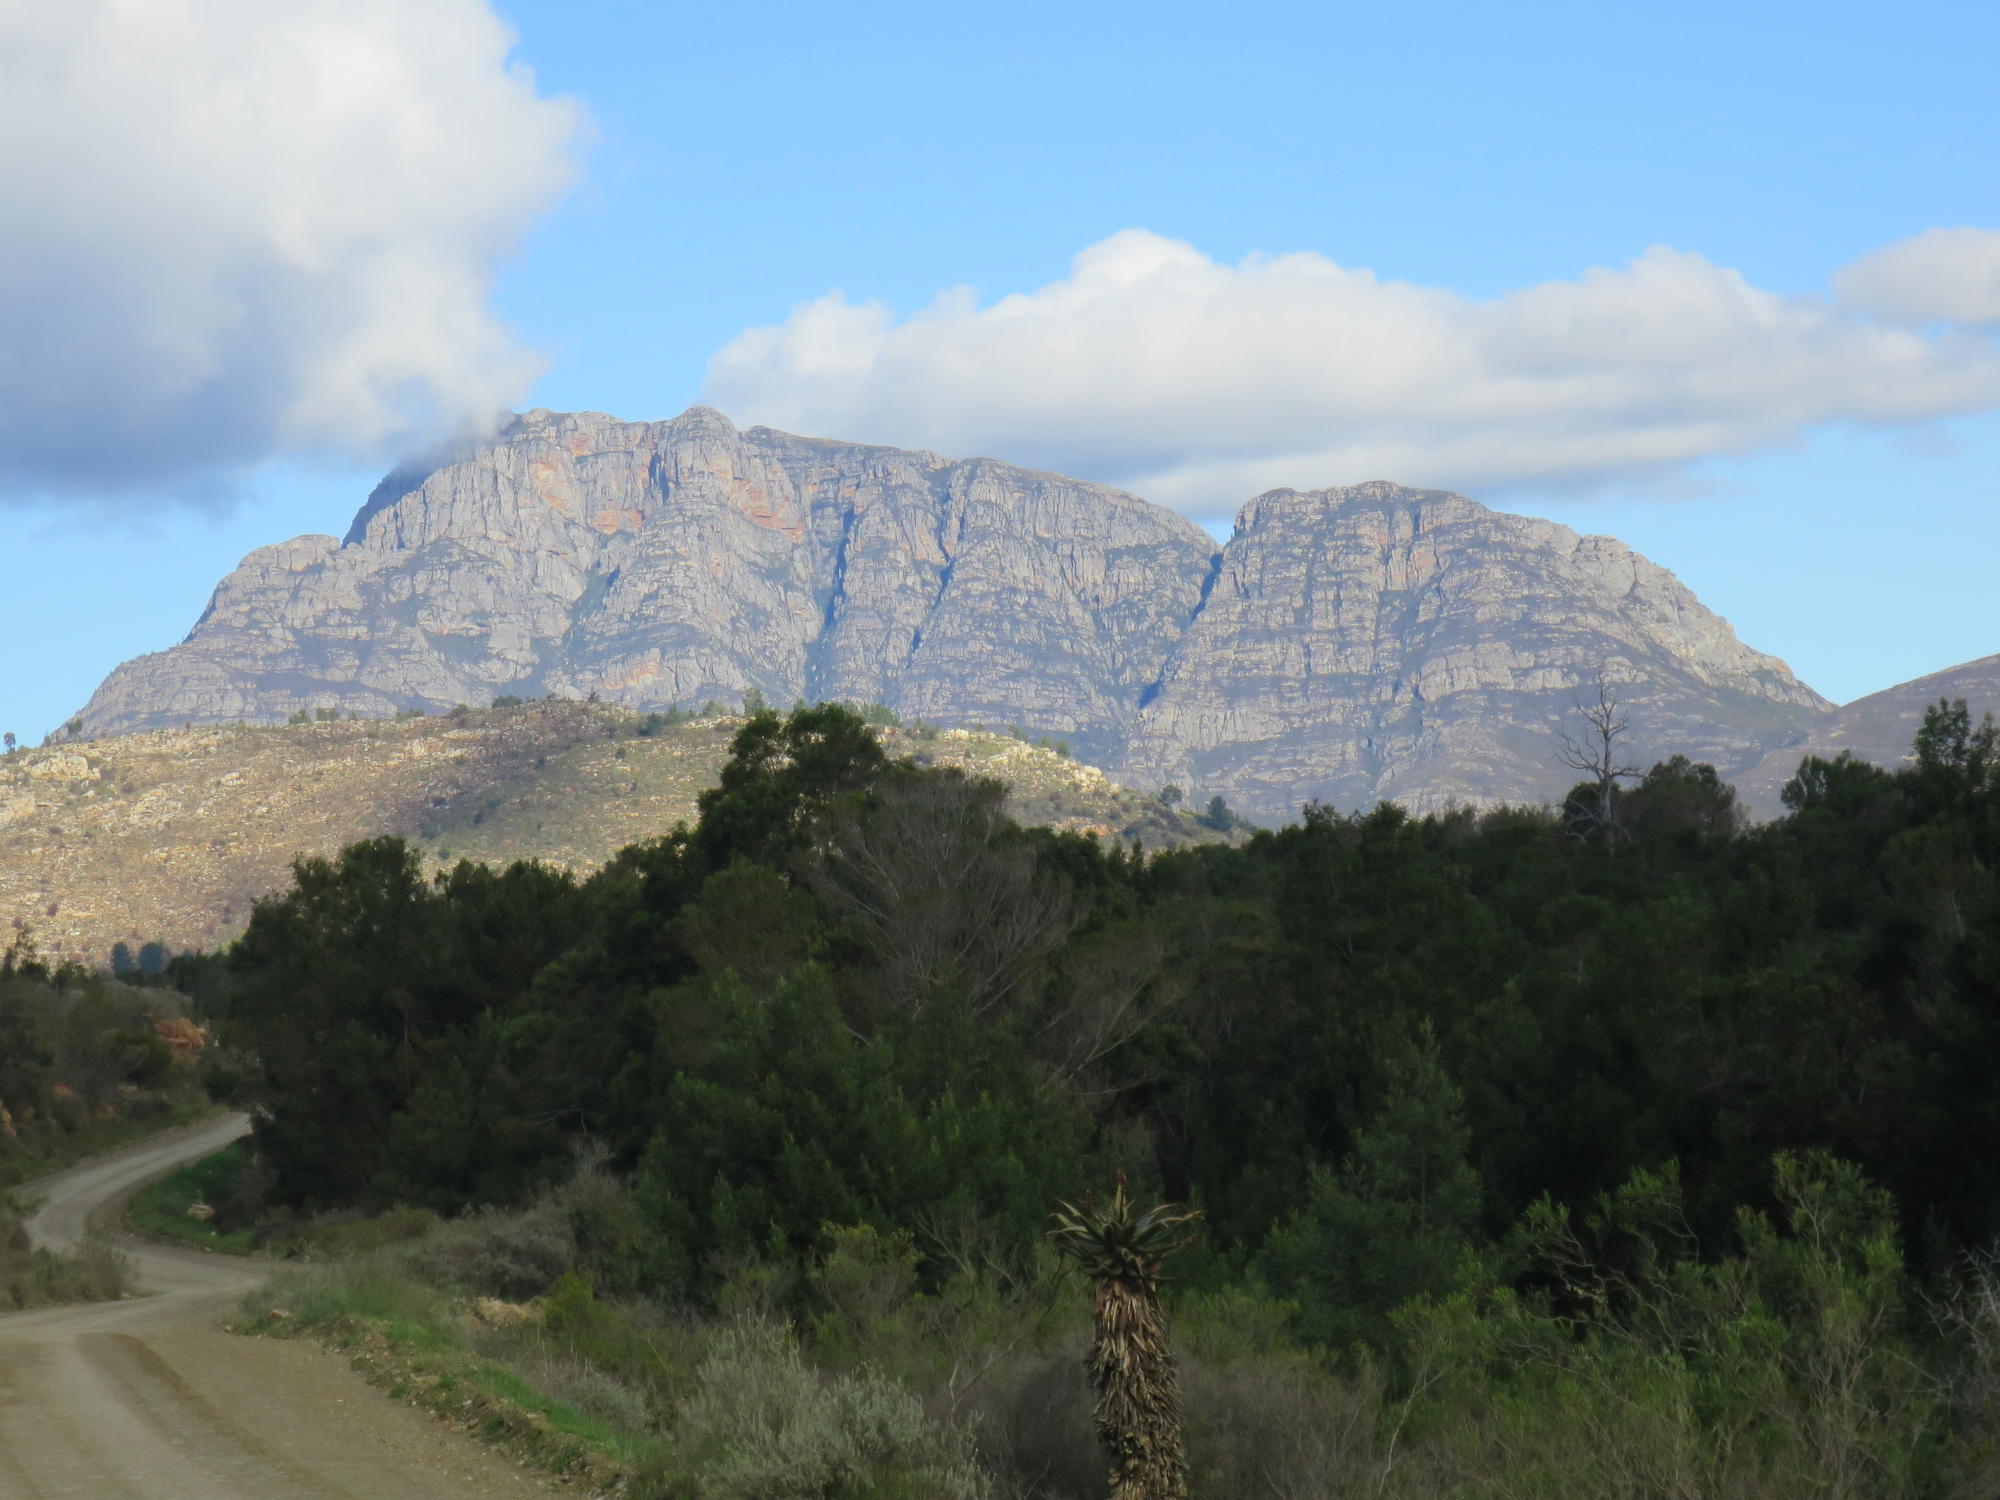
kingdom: Plantae
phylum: Tracheophyta
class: Magnoliopsida
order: Fabales
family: Fabaceae
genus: Acacia
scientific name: Acacia mearnsii
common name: Black wattle
